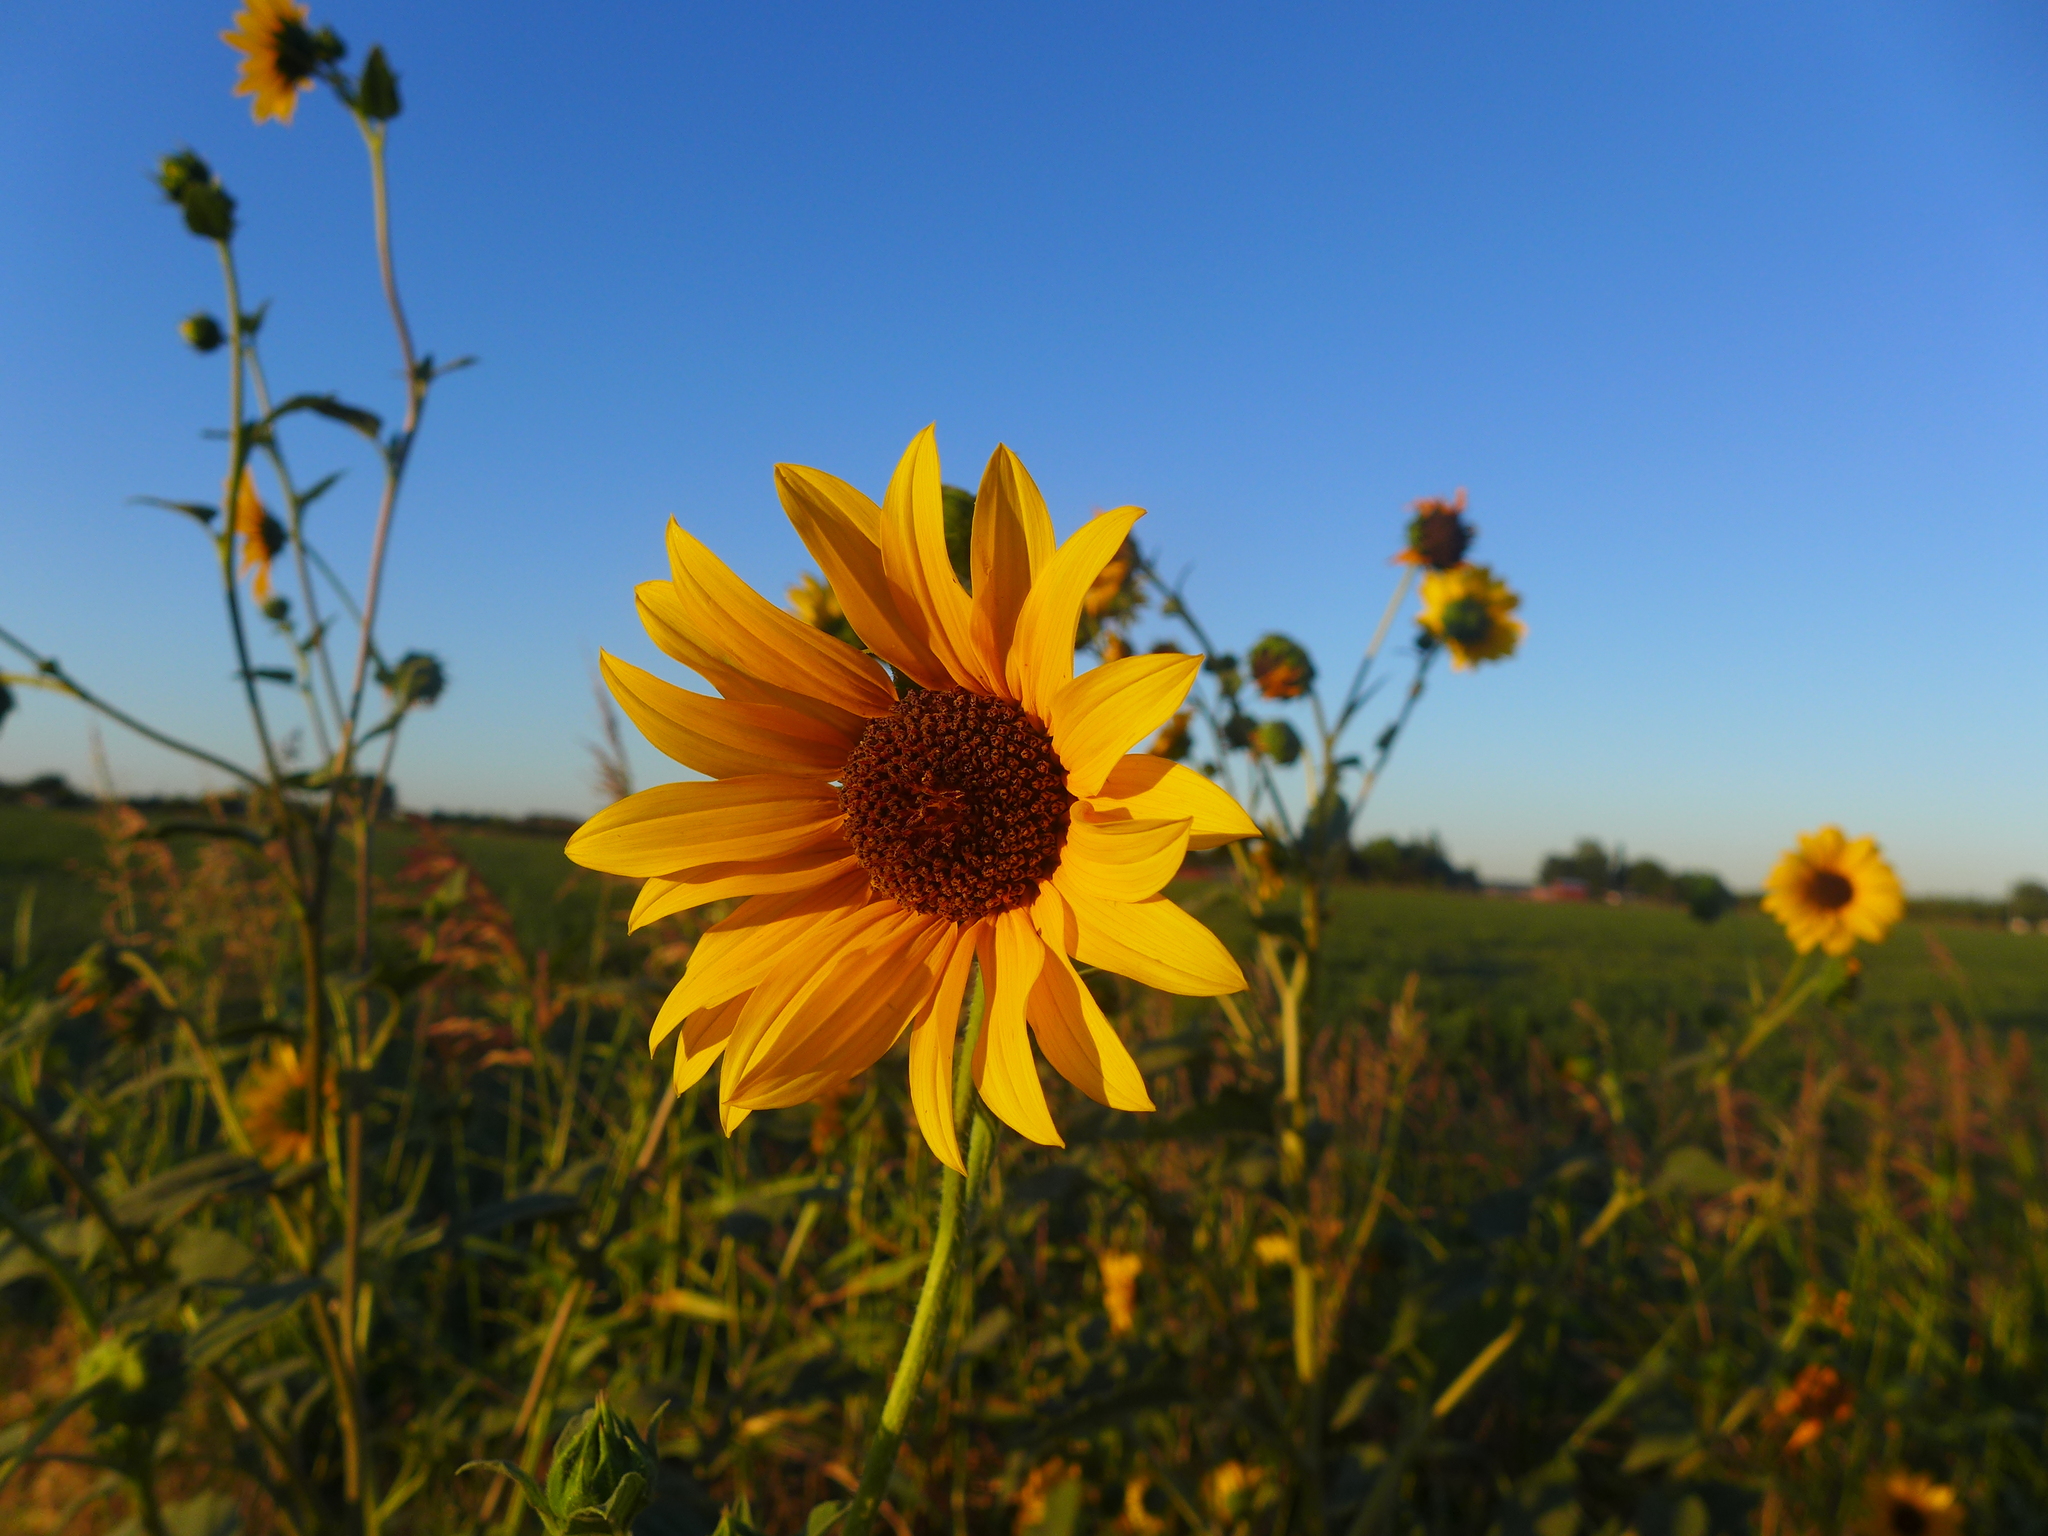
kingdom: Plantae
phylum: Tracheophyta
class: Magnoliopsida
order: Asterales
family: Asteraceae
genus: Helianthus
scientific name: Helianthus annuus
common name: Sunflower
